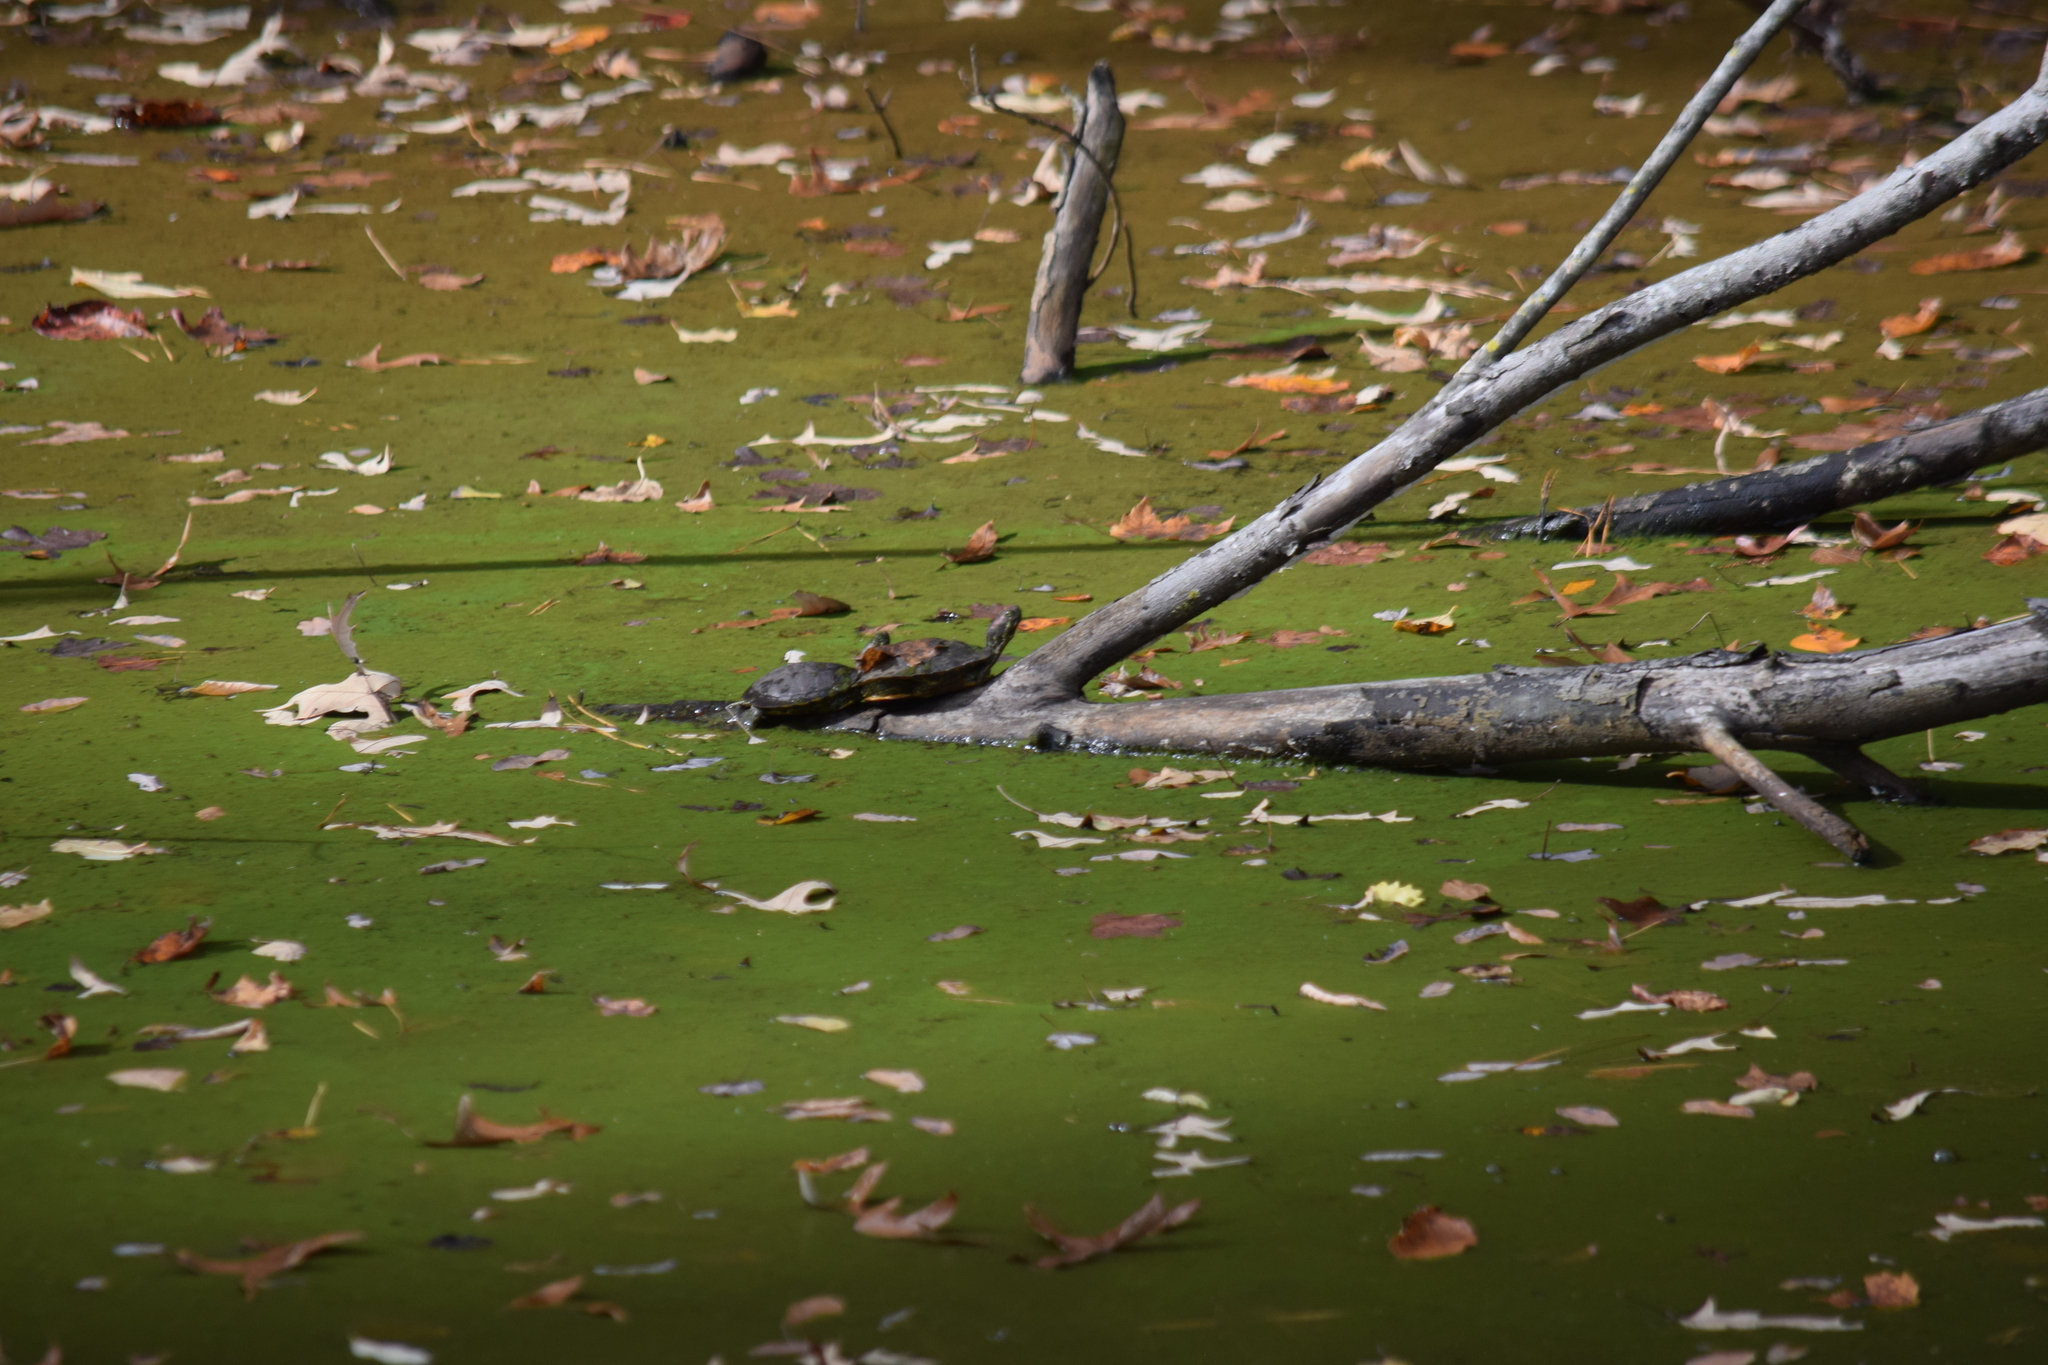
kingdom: Animalia
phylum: Chordata
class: Testudines
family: Emydidae
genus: Trachemys
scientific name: Trachemys scripta
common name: Slider
